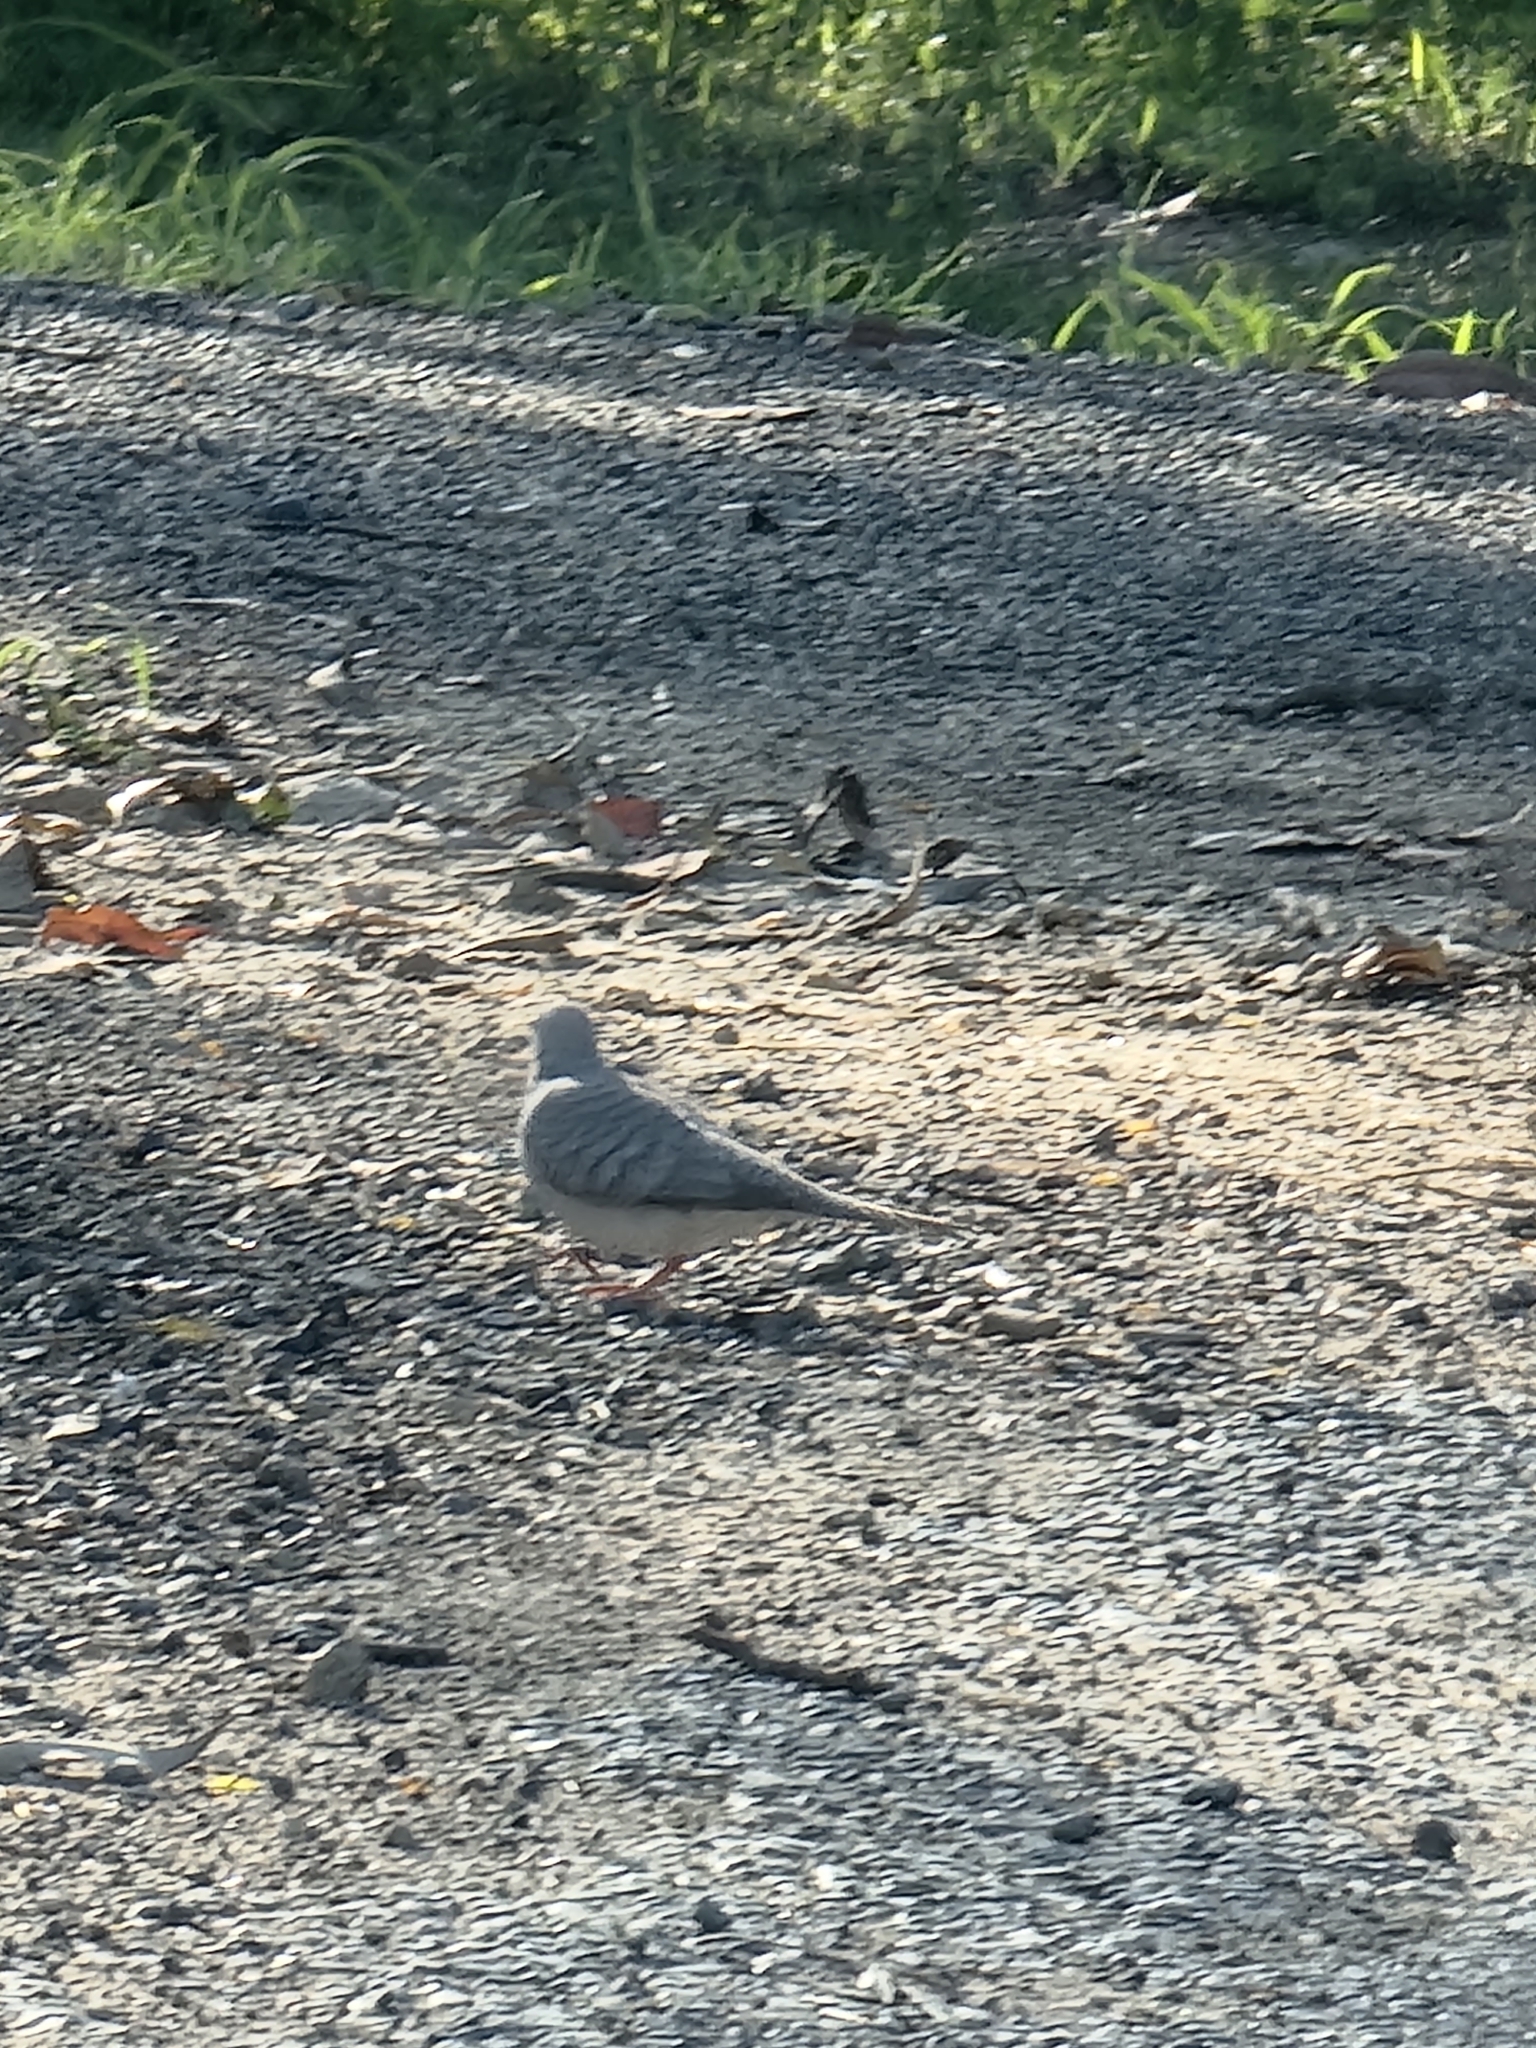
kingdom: Animalia
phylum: Chordata
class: Aves
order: Columbiformes
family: Columbidae
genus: Geopelia
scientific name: Geopelia placida
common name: Peaceful dove
